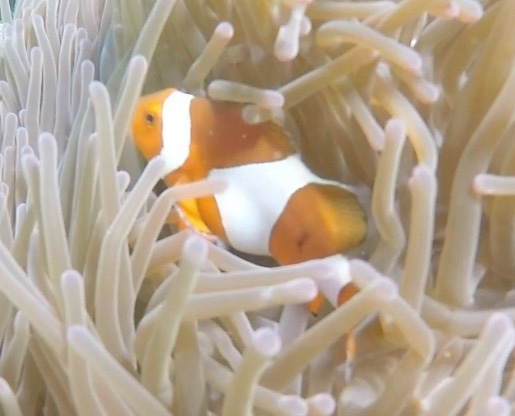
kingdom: Animalia
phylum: Chordata
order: Perciformes
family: Pomacentridae
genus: Amphiprion
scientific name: Amphiprion ocellaris
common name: Clown anemonefish
